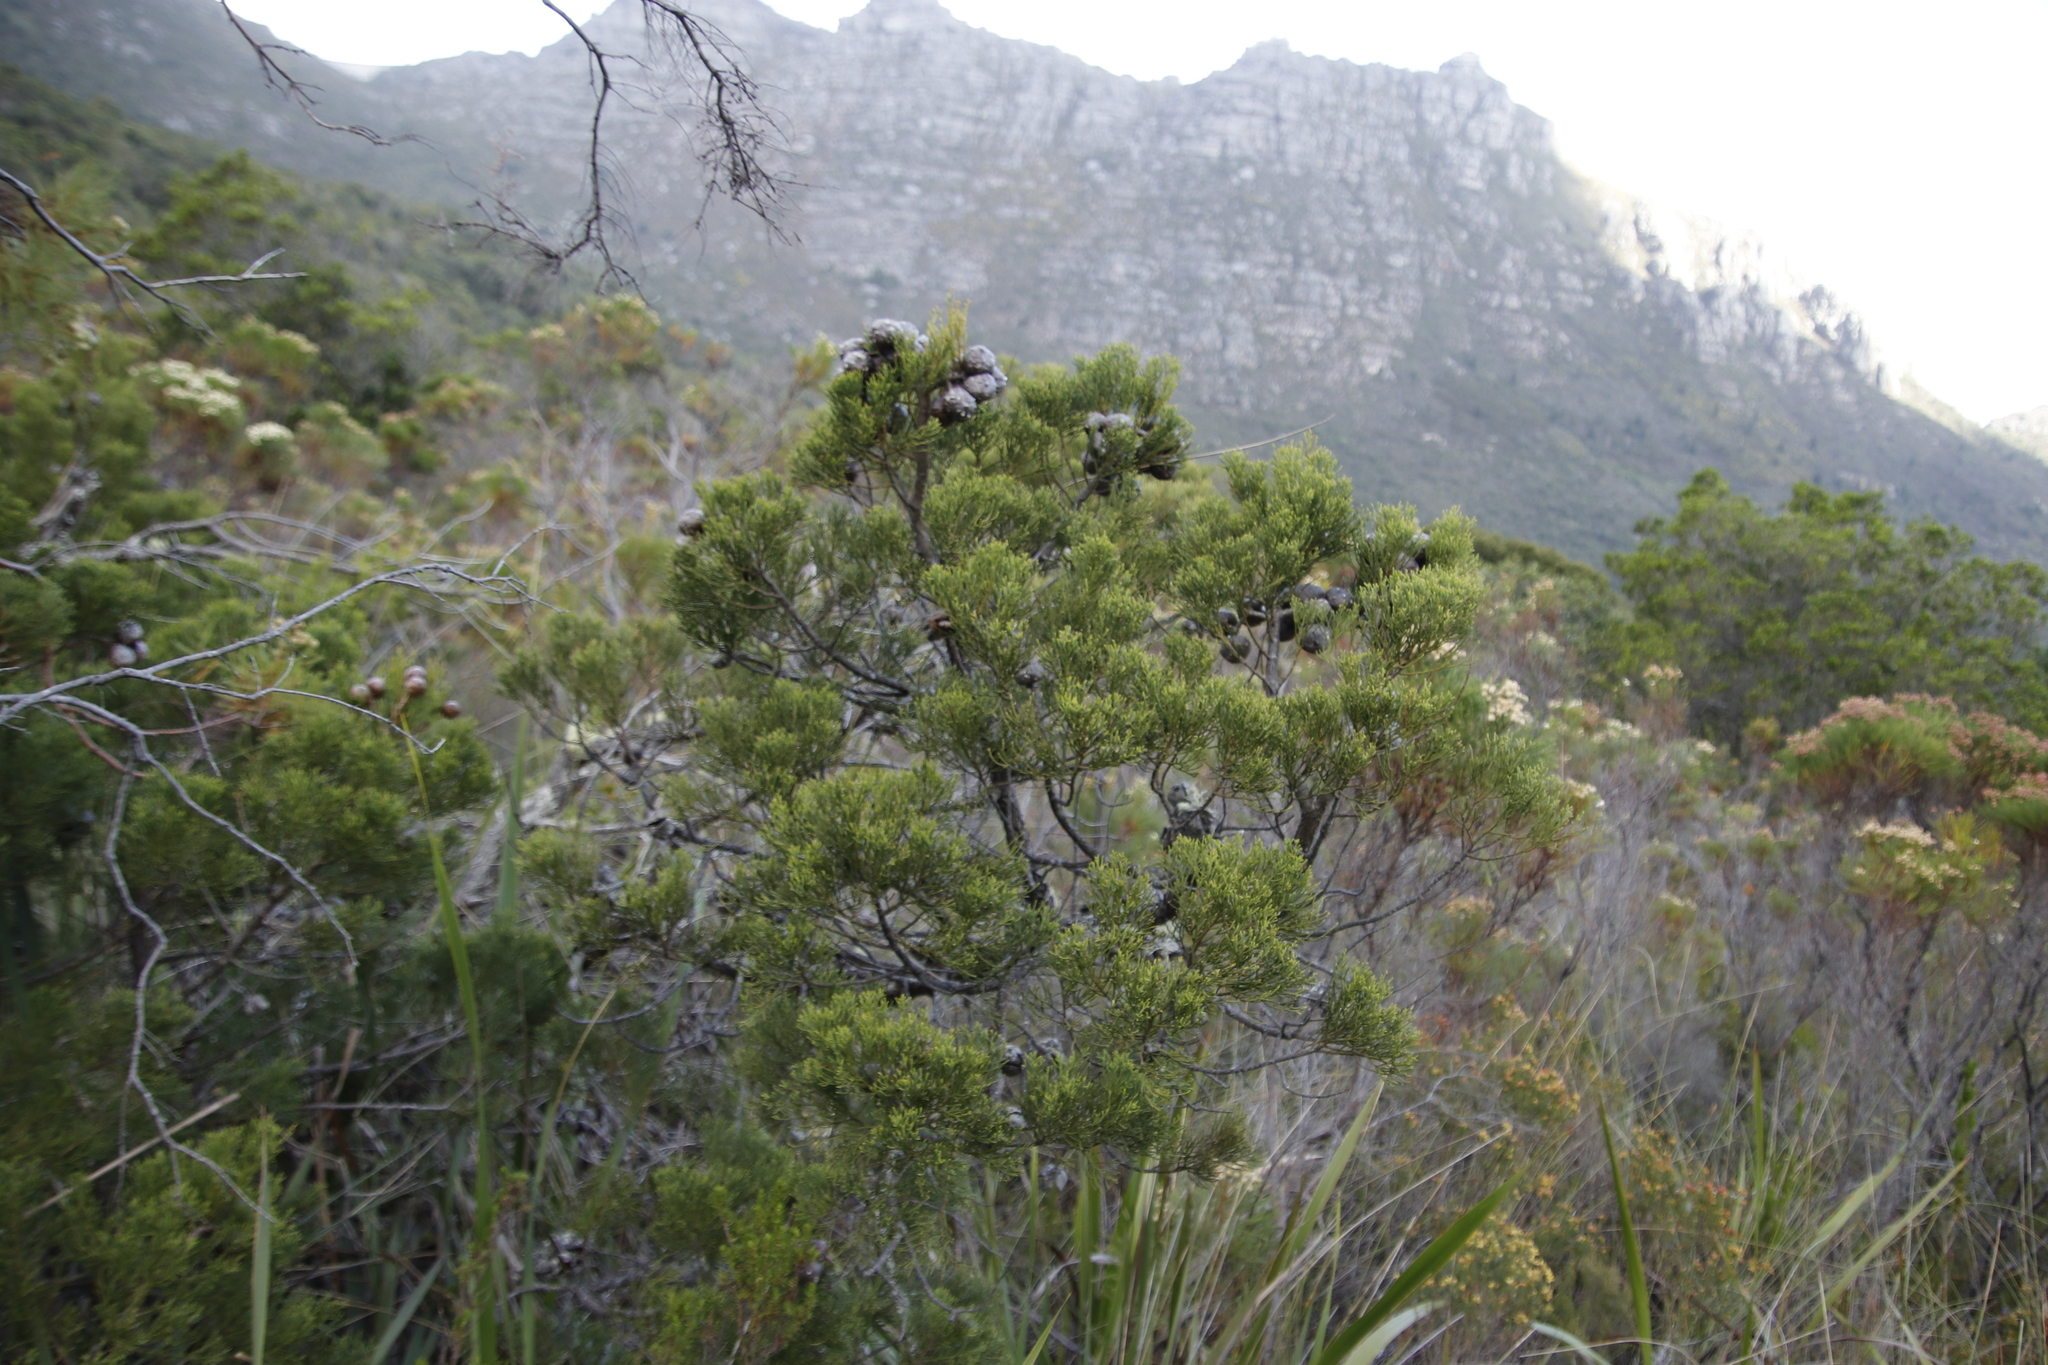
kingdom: Plantae
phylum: Tracheophyta
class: Pinopsida
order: Pinales
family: Cupressaceae
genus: Widdringtonia
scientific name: Widdringtonia nodiflora
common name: Cape cypress
